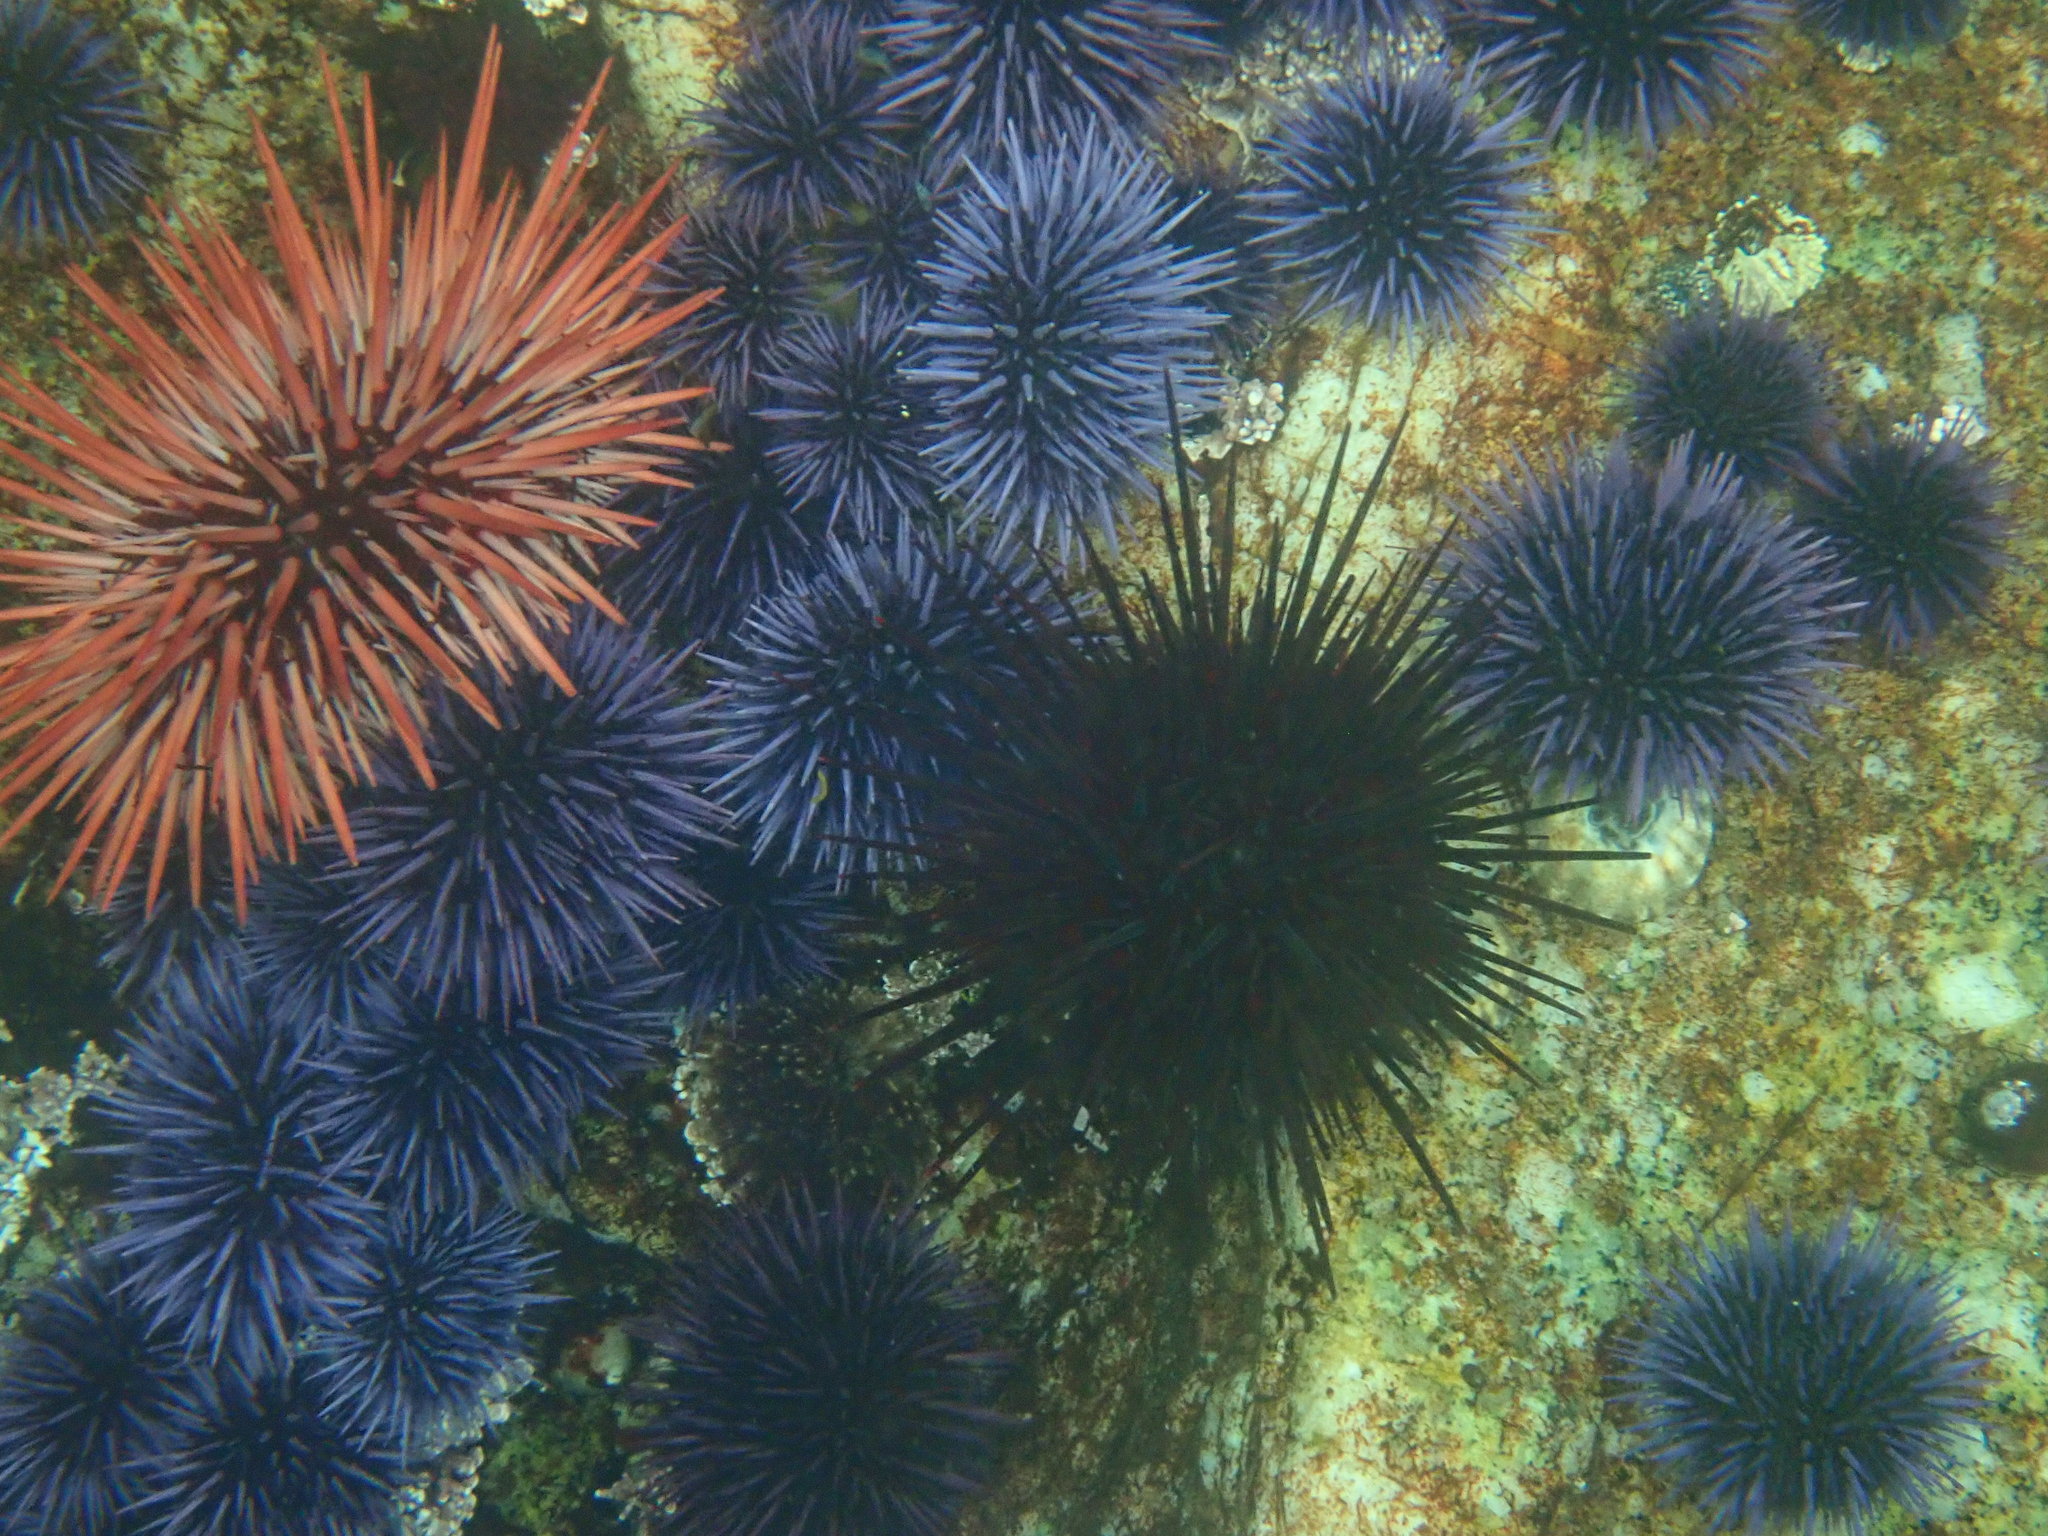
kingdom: Animalia
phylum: Echinodermata
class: Echinoidea
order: Camarodonta
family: Strongylocentrotidae
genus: Mesocentrotus
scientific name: Mesocentrotus franciscanus
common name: Red sea urchin
